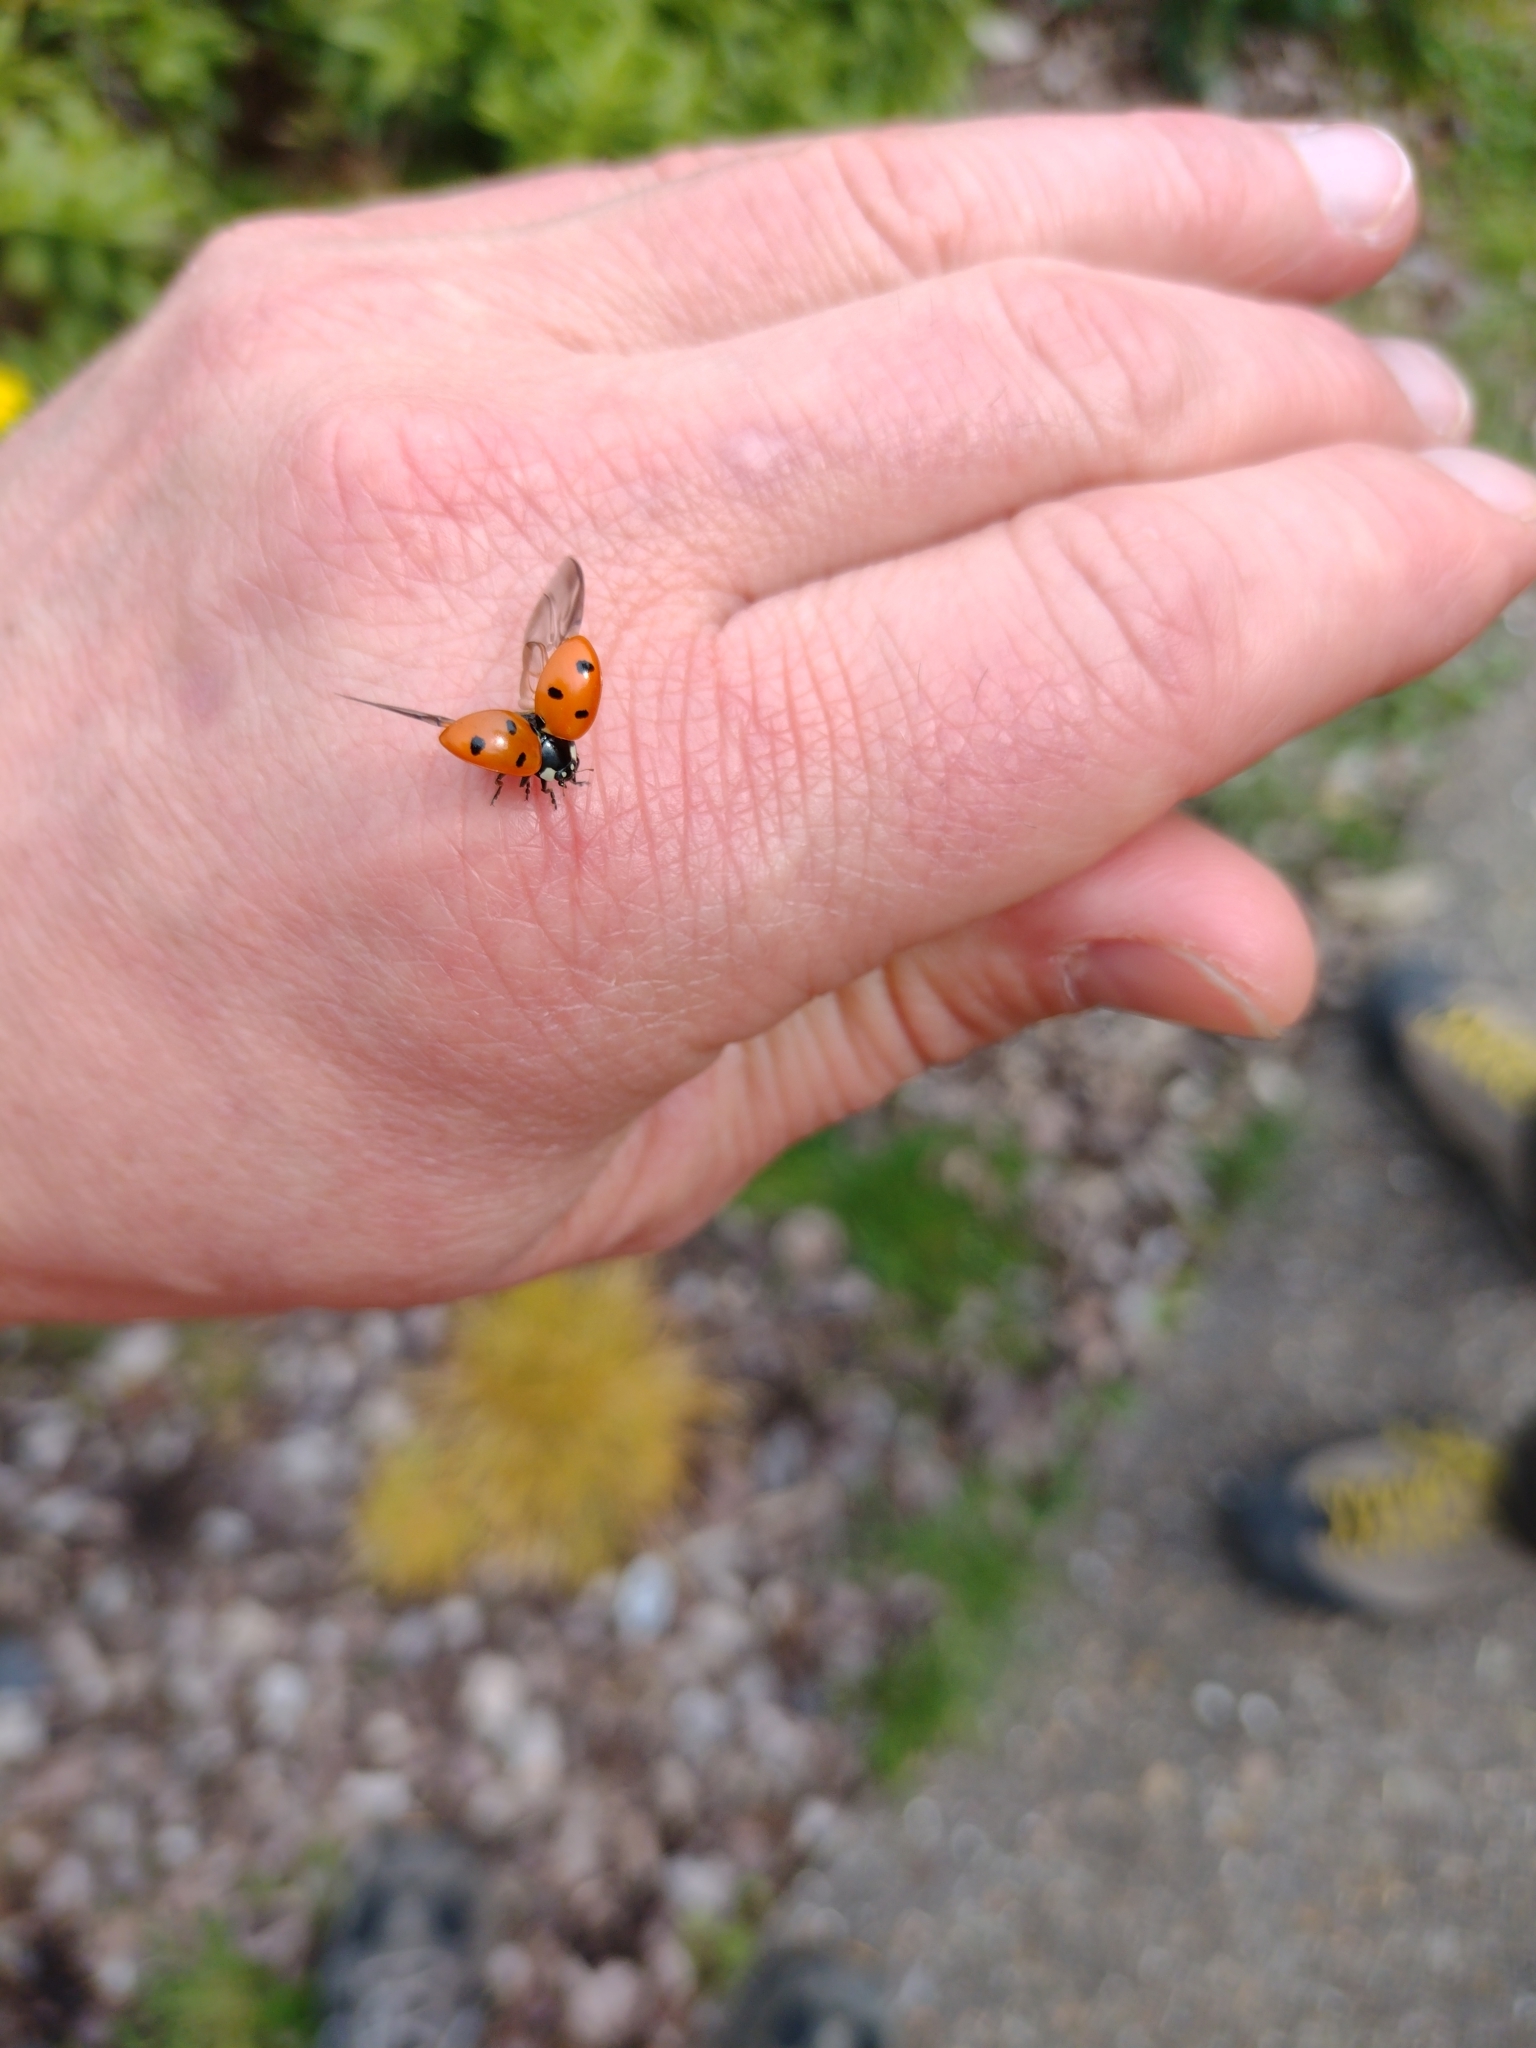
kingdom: Animalia
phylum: Arthropoda
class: Insecta
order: Coleoptera
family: Coccinellidae
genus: Coccinella
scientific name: Coccinella septempunctata
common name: Sevenspotted lady beetle
